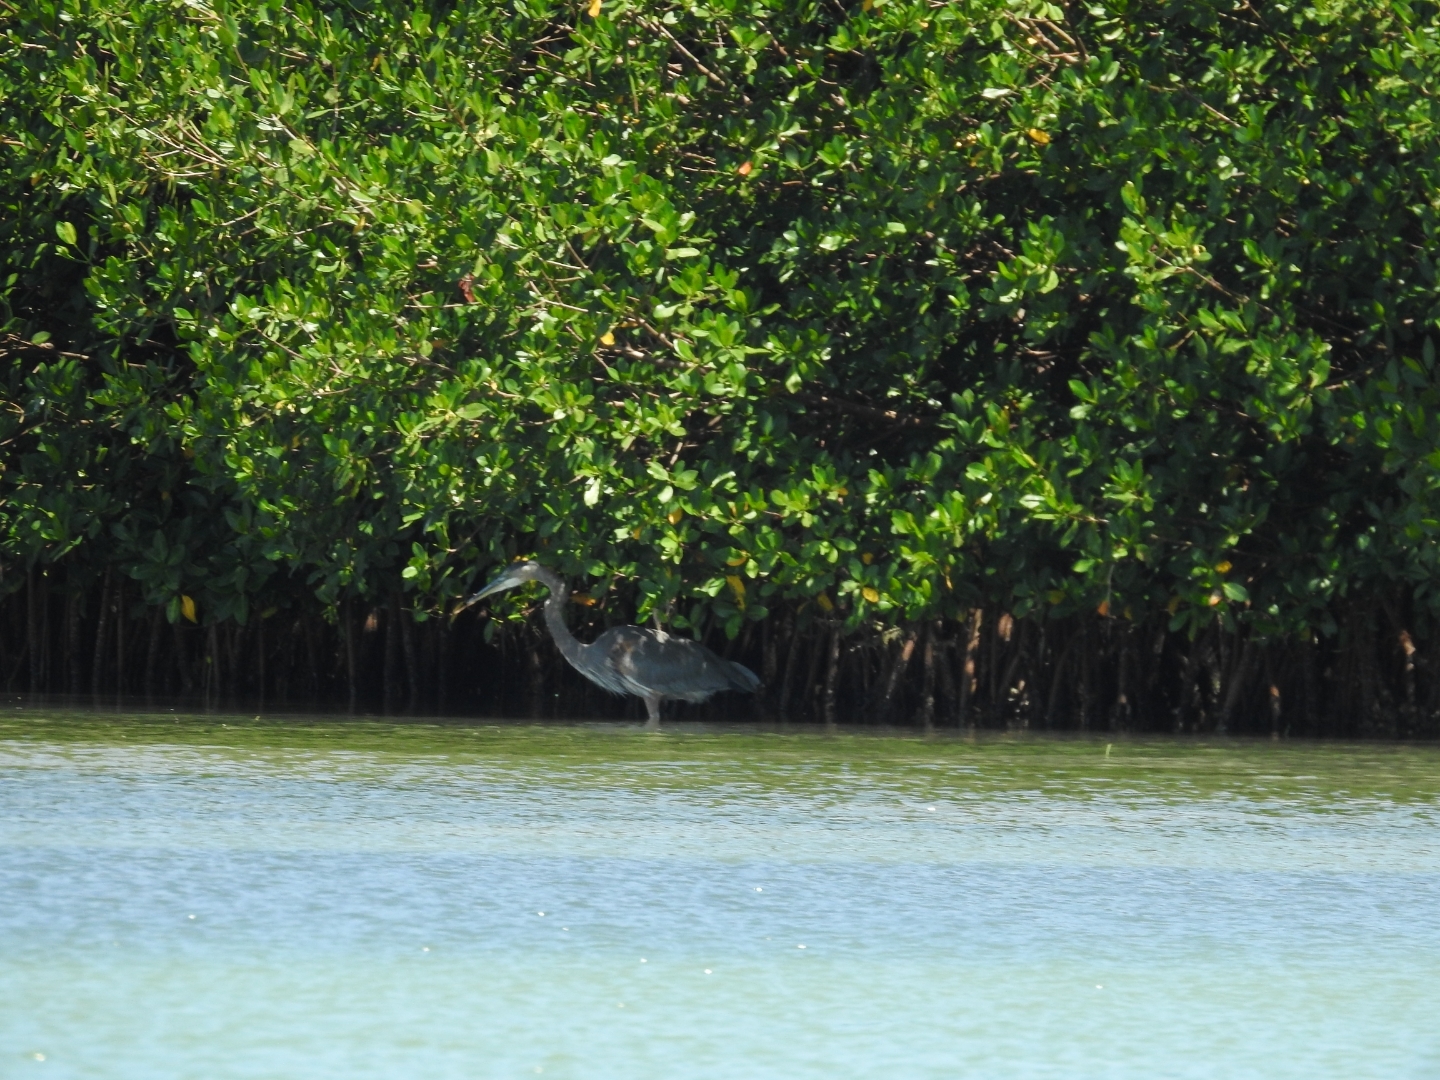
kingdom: Animalia
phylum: Chordata
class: Aves
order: Pelecaniformes
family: Ardeidae
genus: Ardea
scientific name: Ardea herodias
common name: Great blue heron
